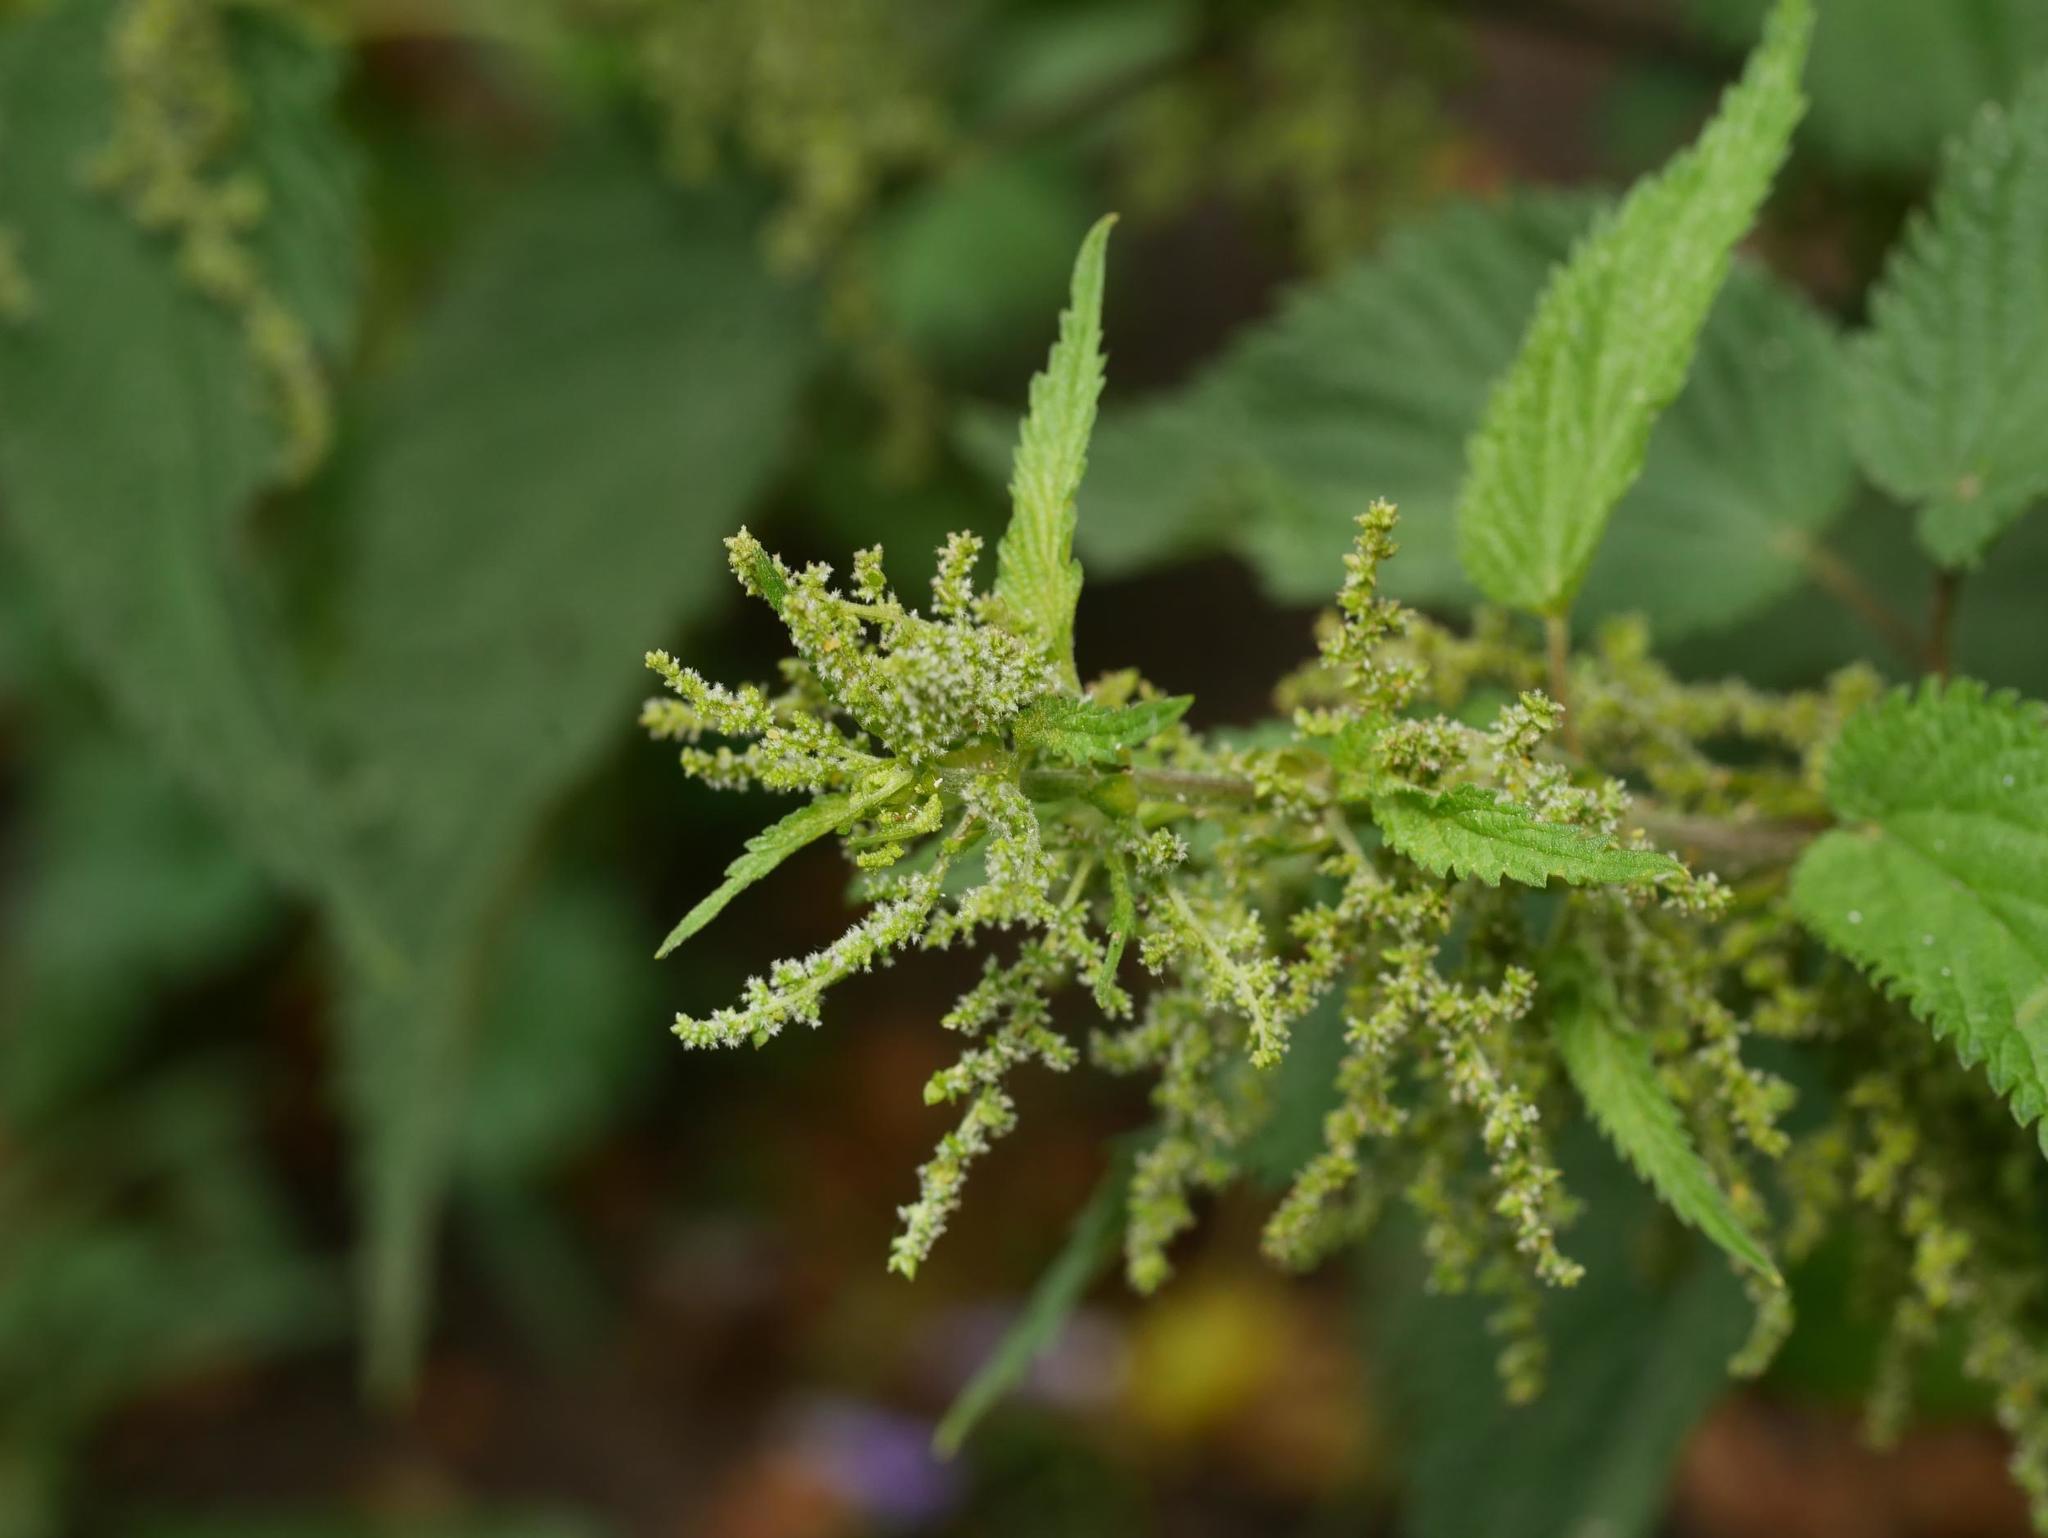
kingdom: Plantae
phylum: Tracheophyta
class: Magnoliopsida
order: Rosales
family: Urticaceae
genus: Urtica
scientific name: Urtica dioica
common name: Common nettle
